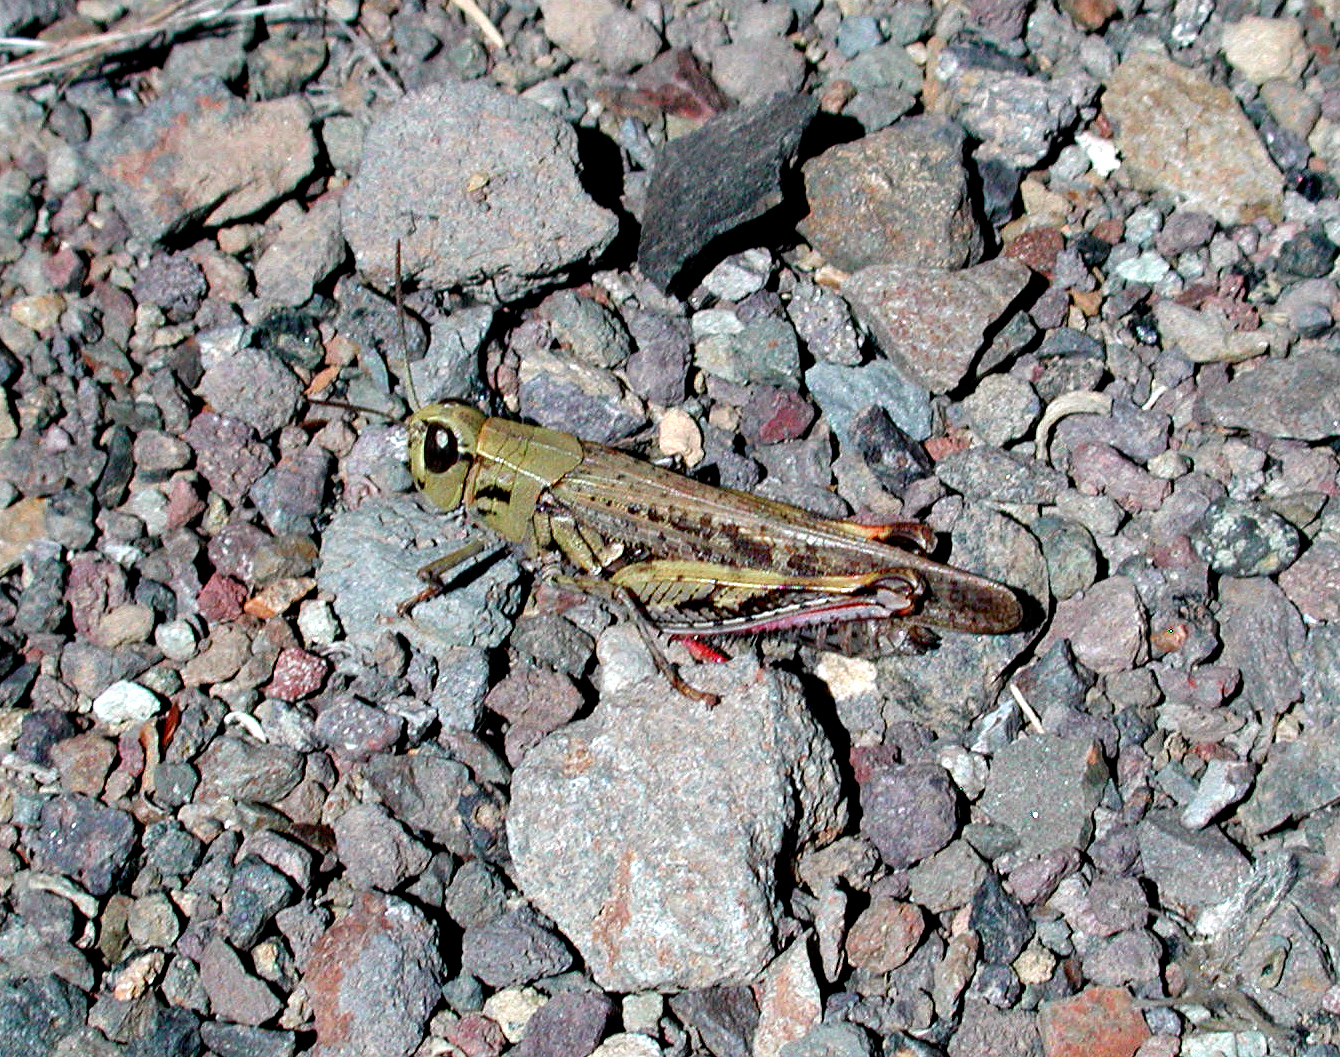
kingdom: Animalia
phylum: Arthropoda
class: Insecta
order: Orthoptera
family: Acrididae
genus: Calliptamus
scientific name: Calliptamus plebeius
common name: Canarian pincer grasshopper
